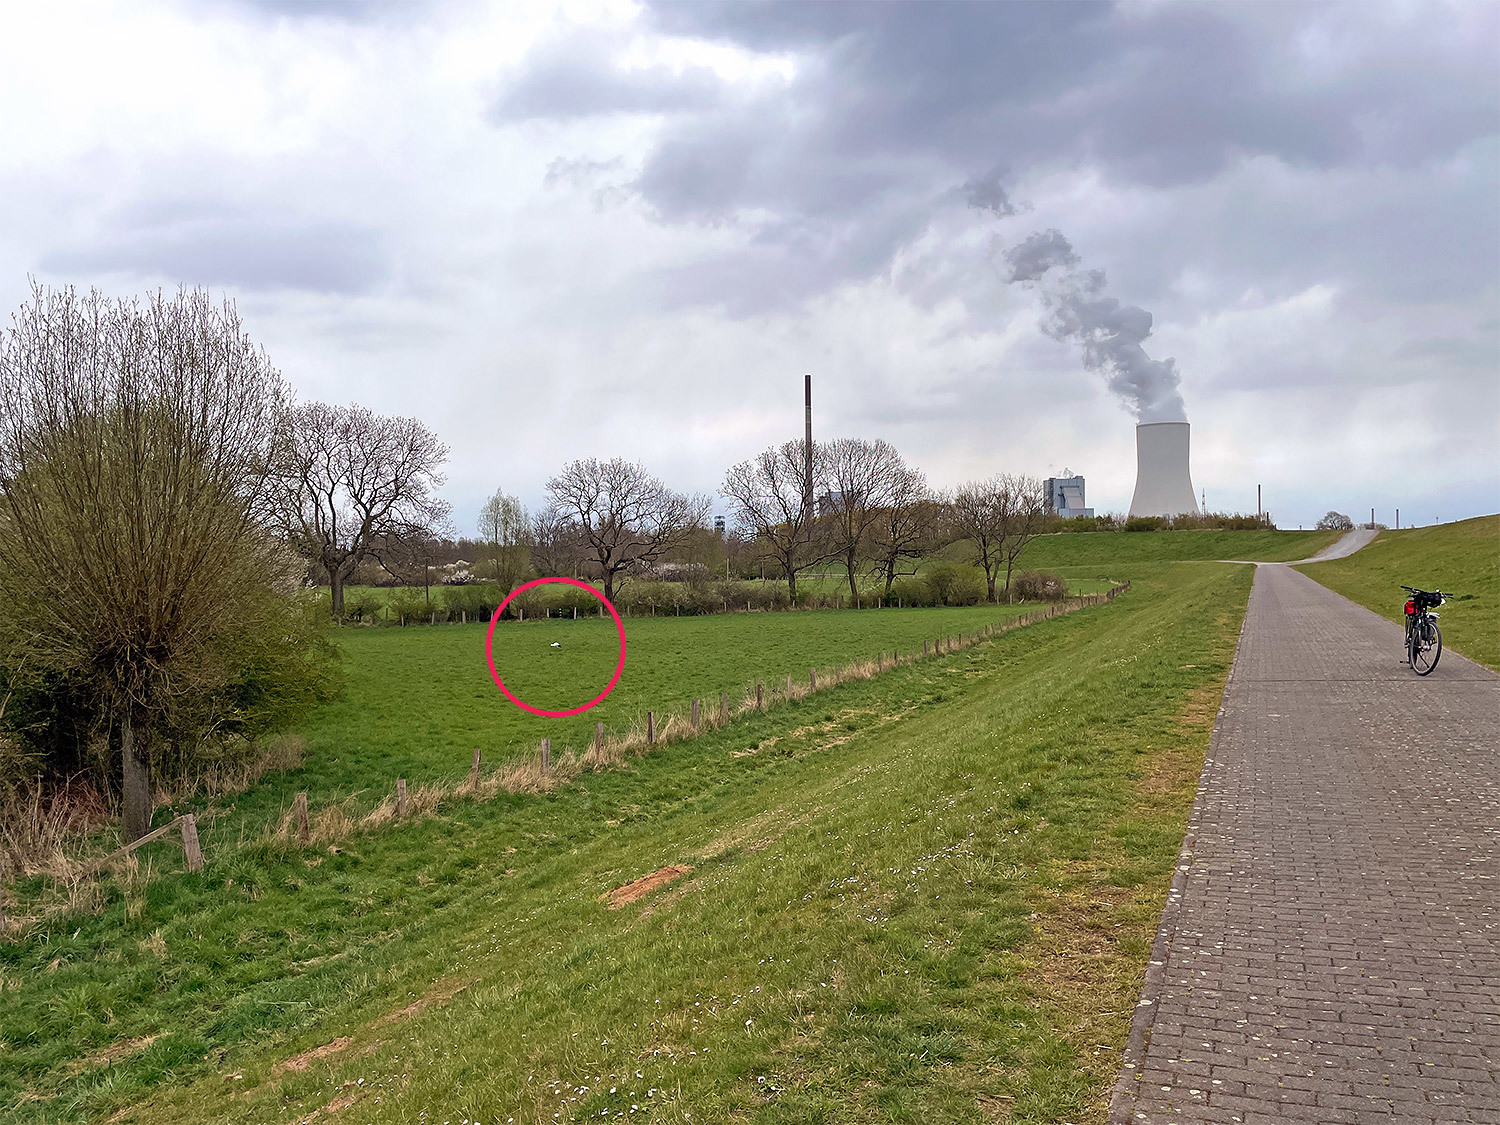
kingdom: Animalia
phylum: Chordata
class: Aves
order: Ciconiiformes
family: Ciconiidae
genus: Ciconia
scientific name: Ciconia ciconia
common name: White stork
